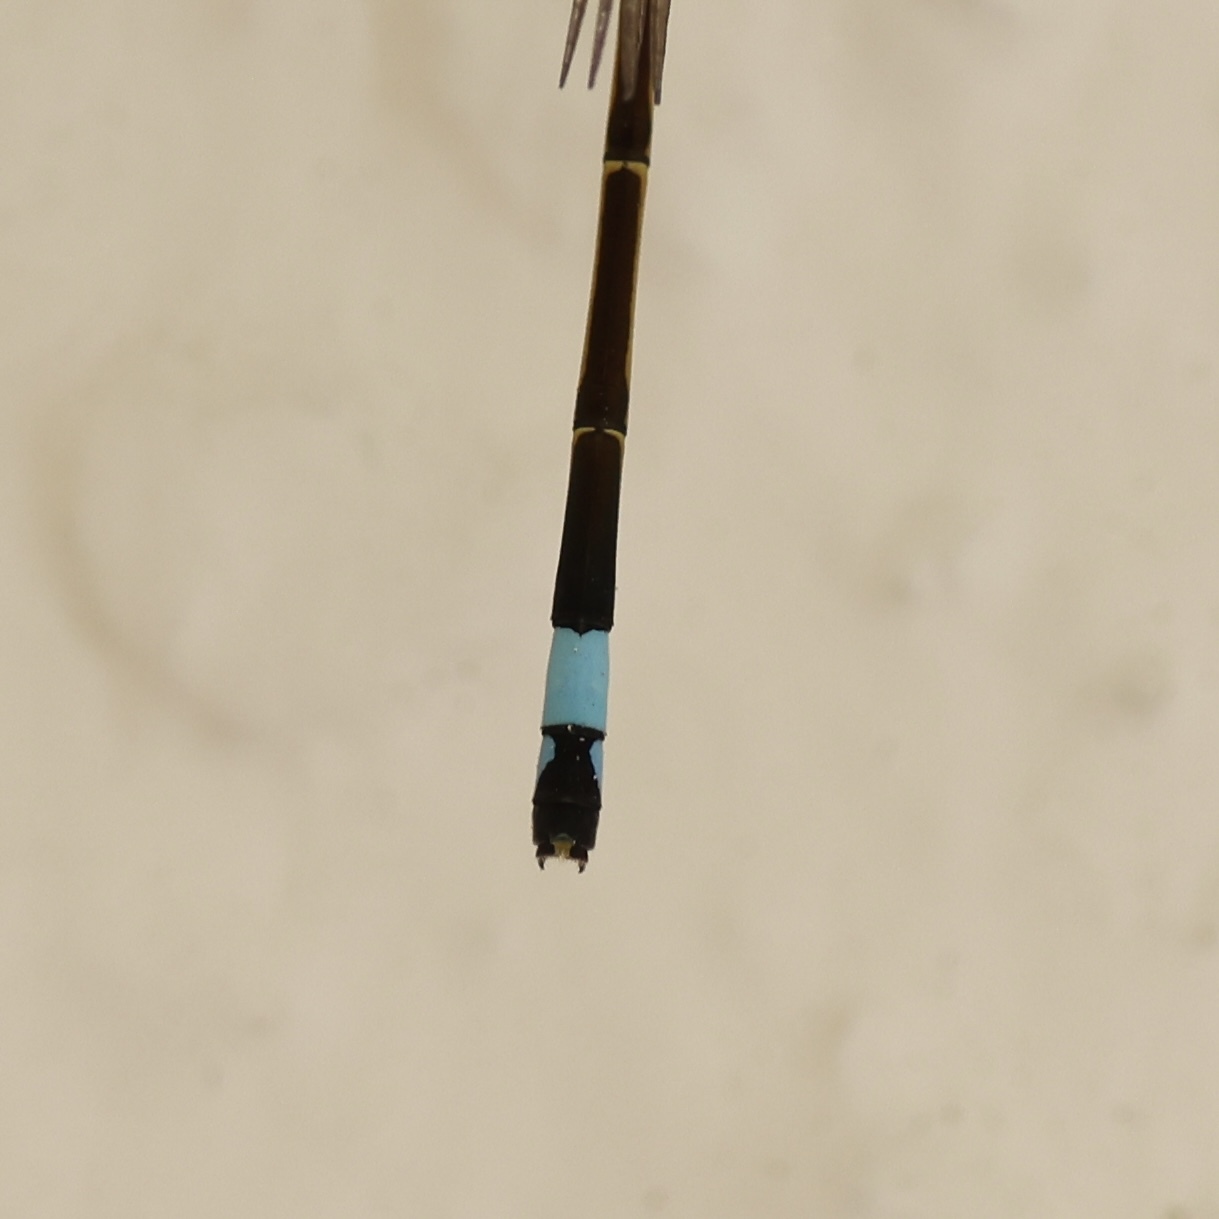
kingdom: Animalia
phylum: Arthropoda
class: Insecta
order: Odonata
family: Coenagrionidae
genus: Ischnura
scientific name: Ischnura ramburii
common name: Rambur's forktail
